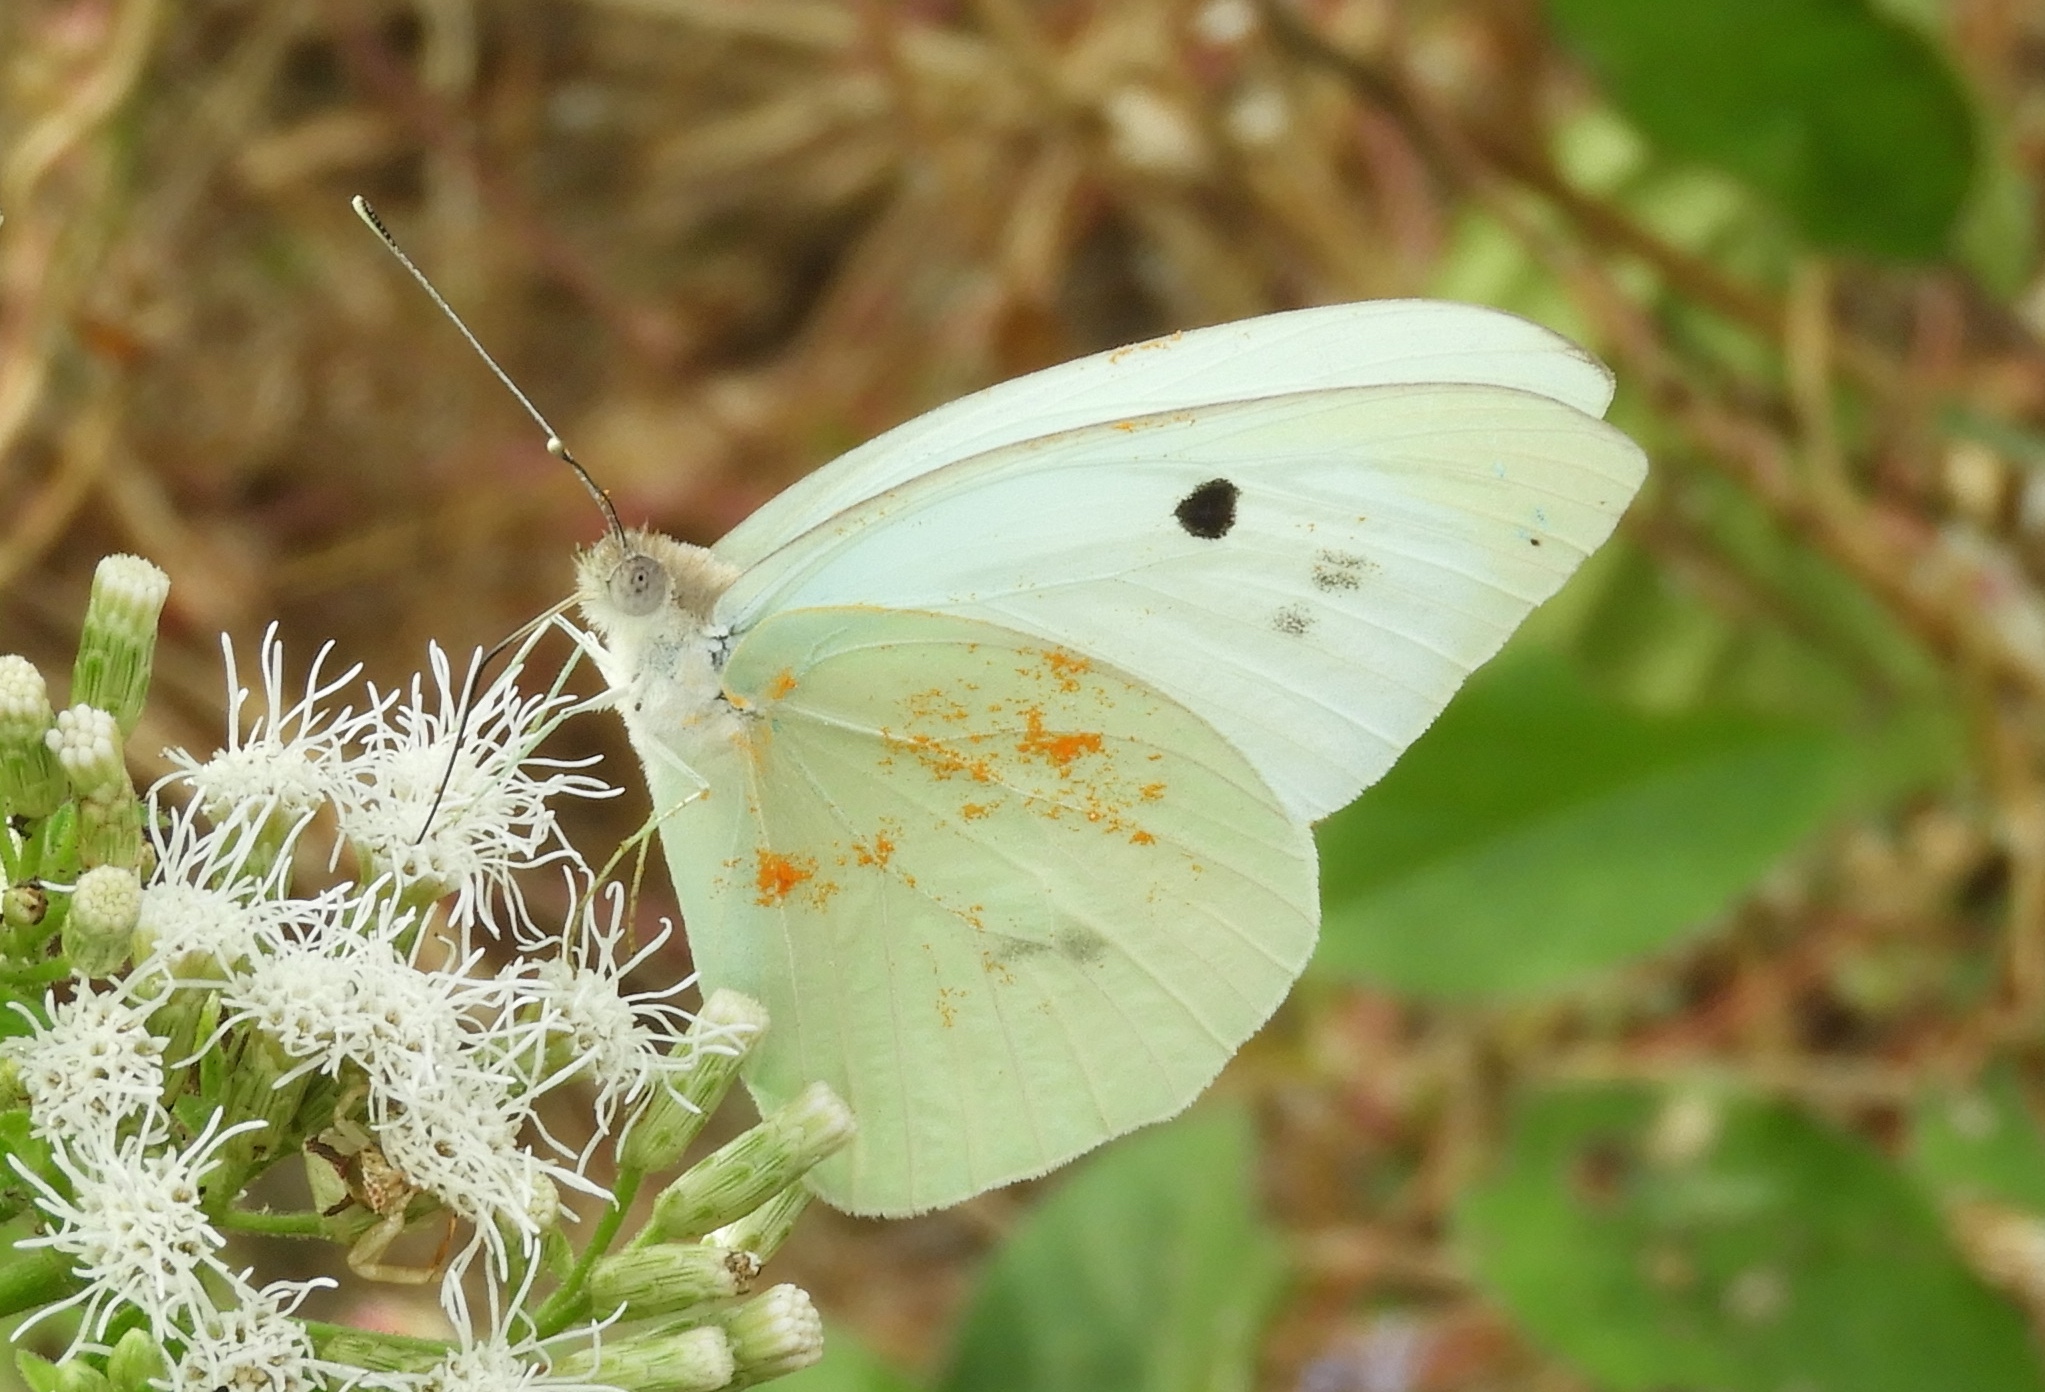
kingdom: Animalia
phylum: Arthropoda
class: Insecta
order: Lepidoptera
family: Pieridae
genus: Ganyra
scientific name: Ganyra josephina
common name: Giant white
